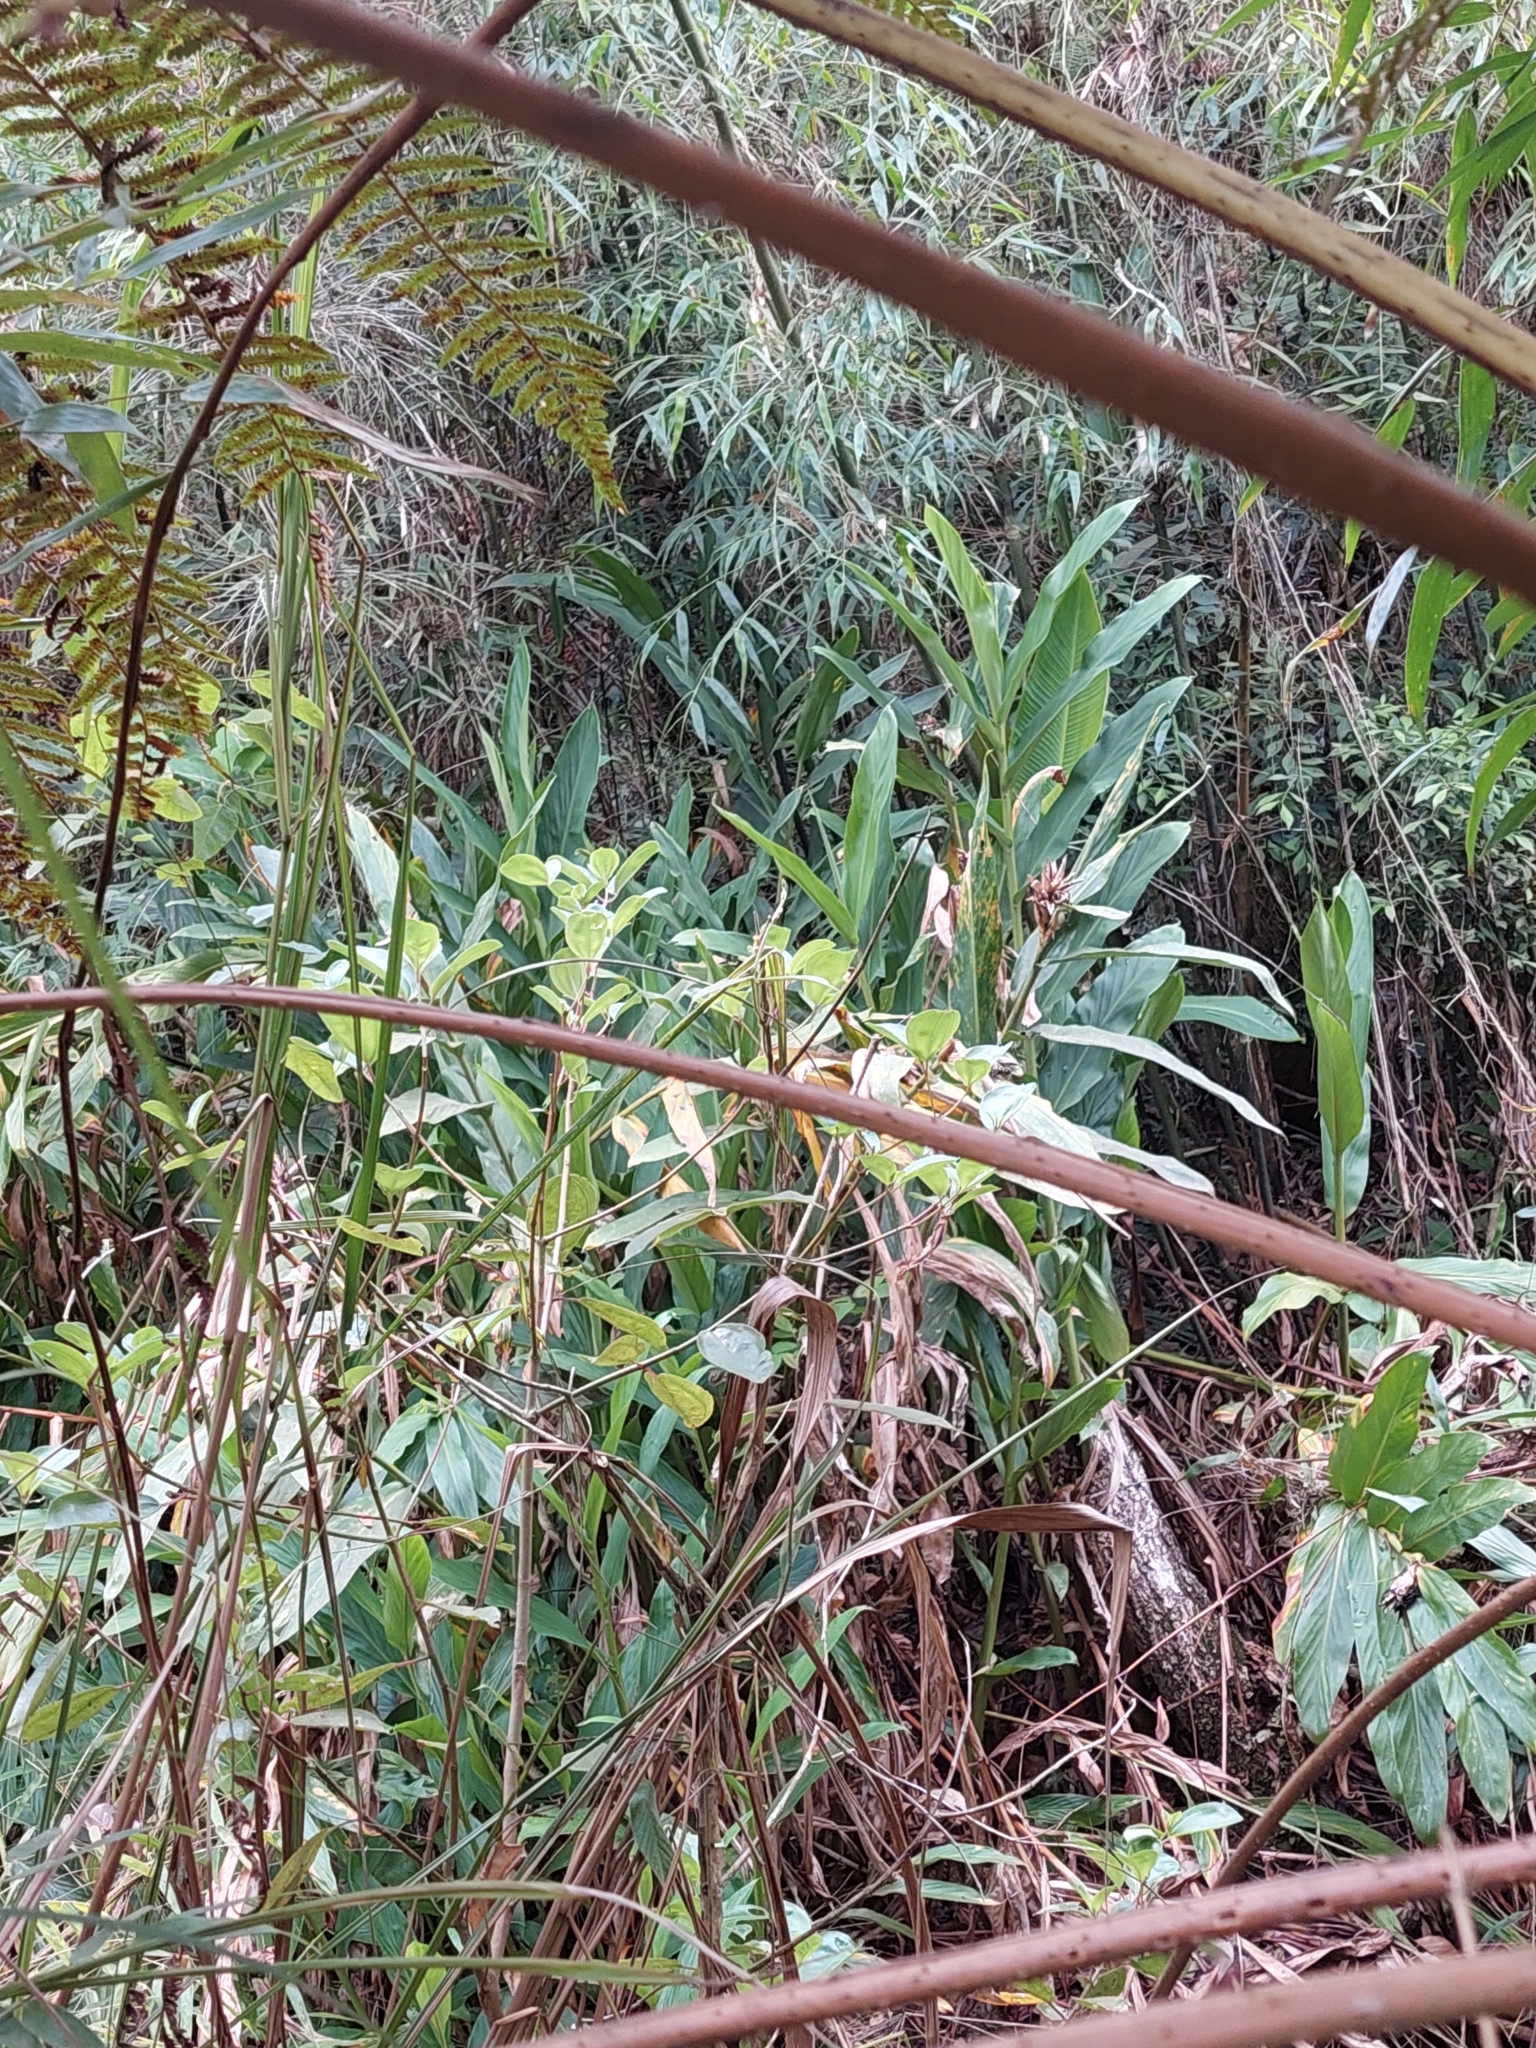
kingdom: Plantae
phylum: Tracheophyta
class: Liliopsida
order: Zingiberales
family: Zingiberaceae
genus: Hedychium
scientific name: Hedychium coronarium
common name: White garland-lily
